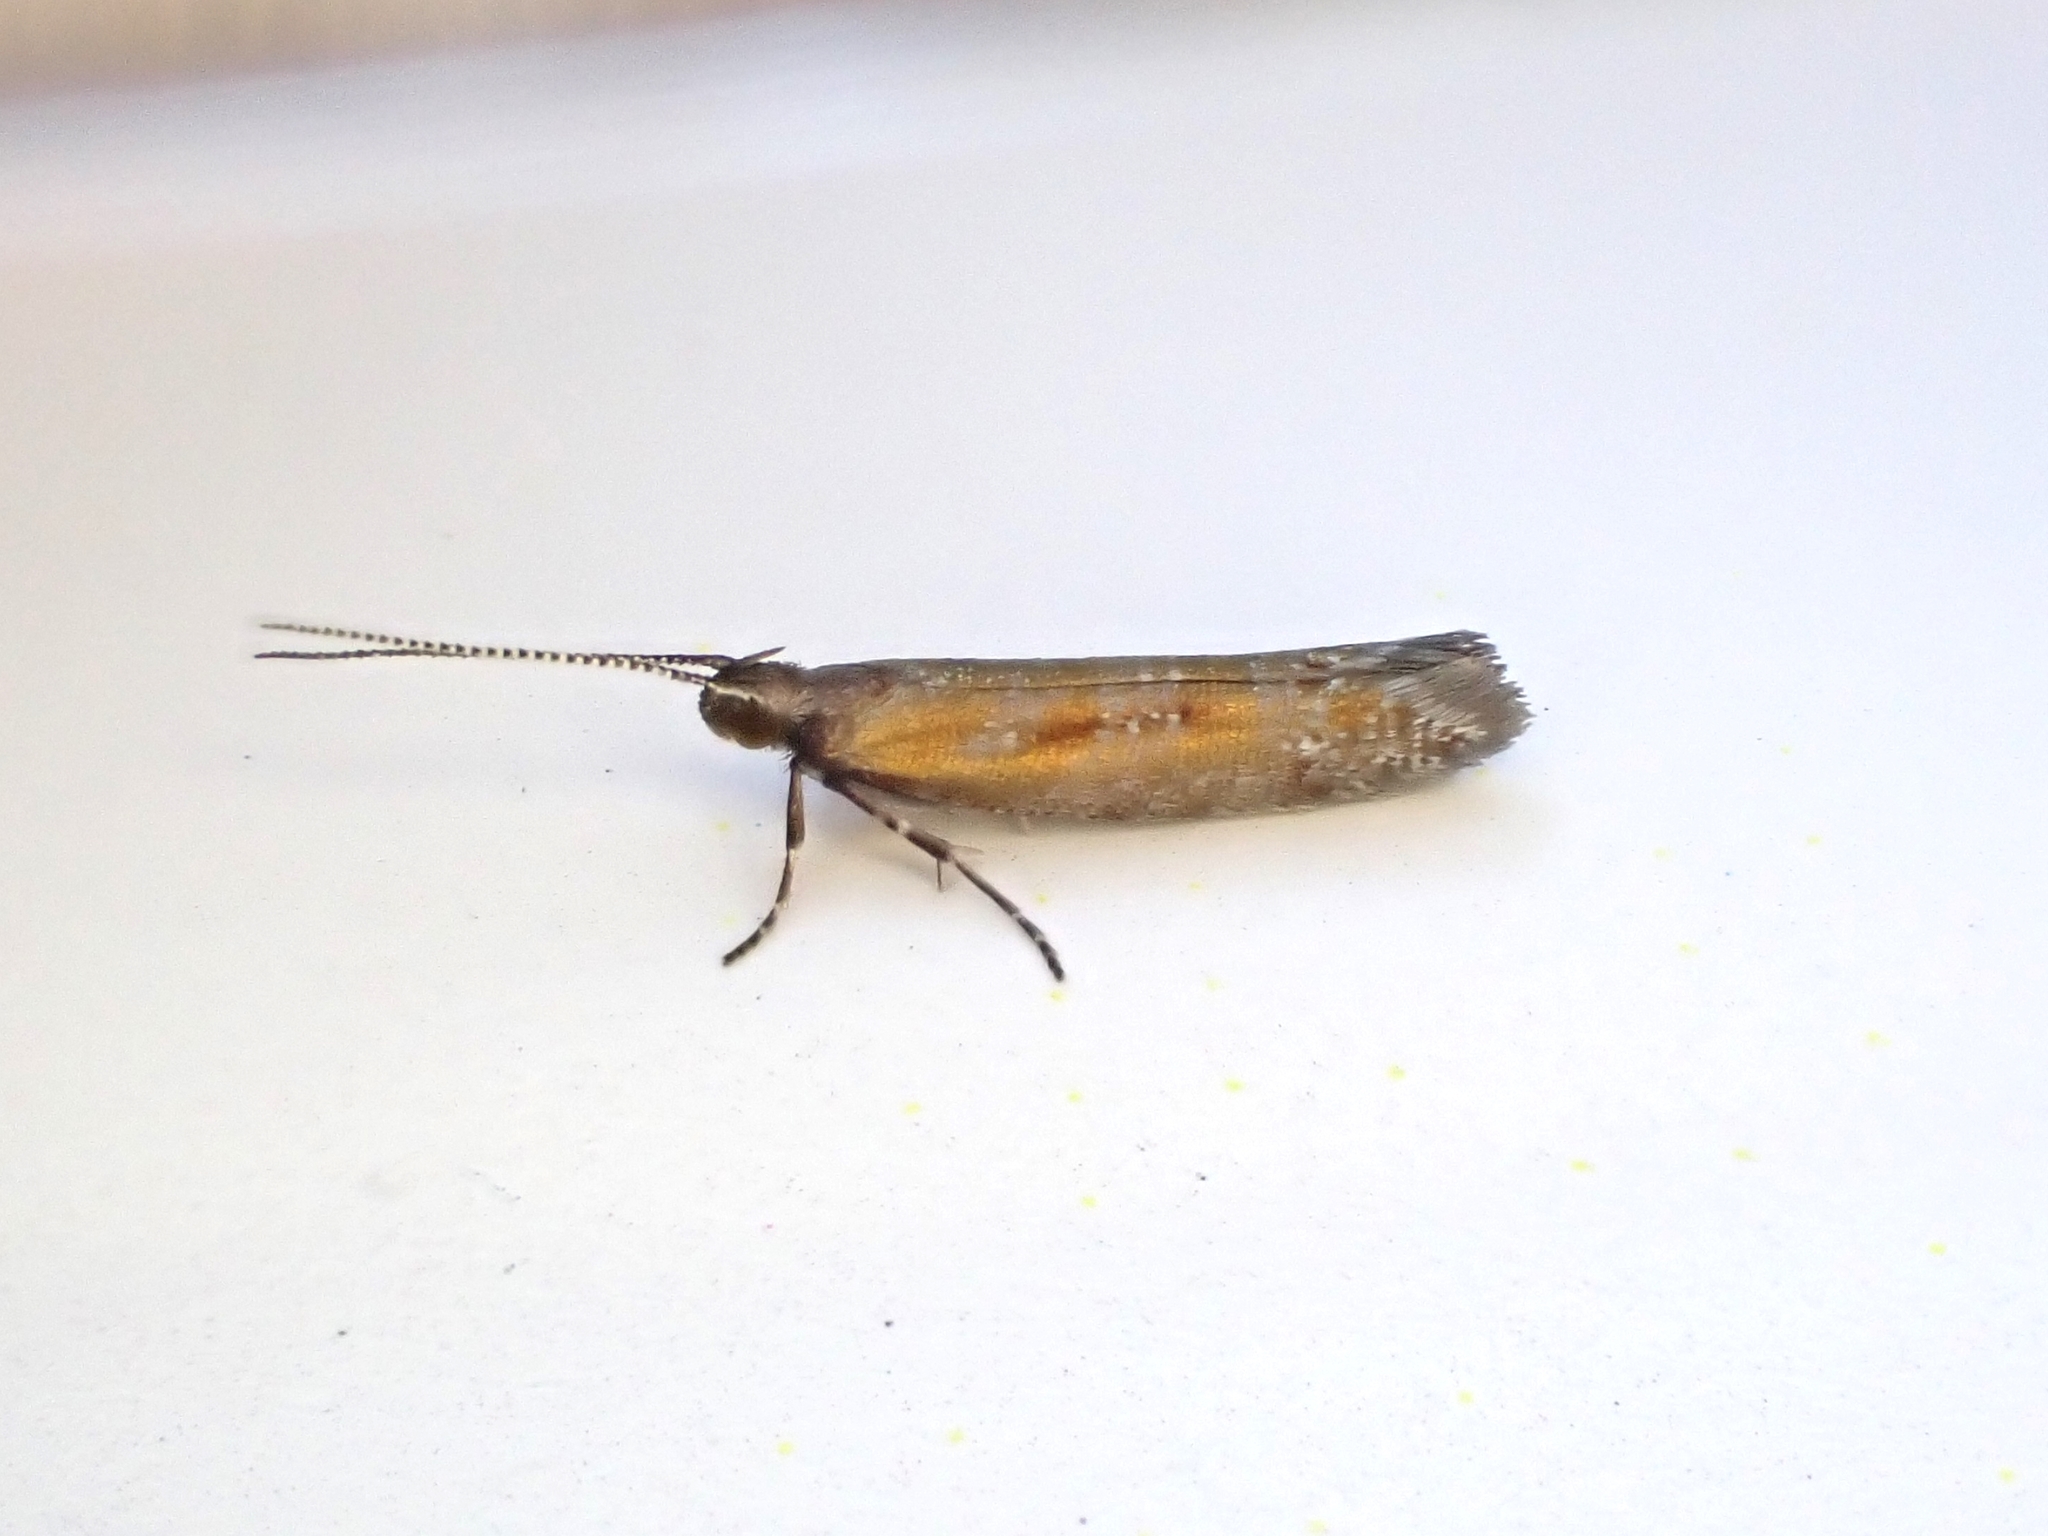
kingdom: Animalia
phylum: Arthropoda
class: Insecta
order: Lepidoptera
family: Glyphipterigidae
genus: Chrysorthenches
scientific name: Chrysorthenches drosochalca
